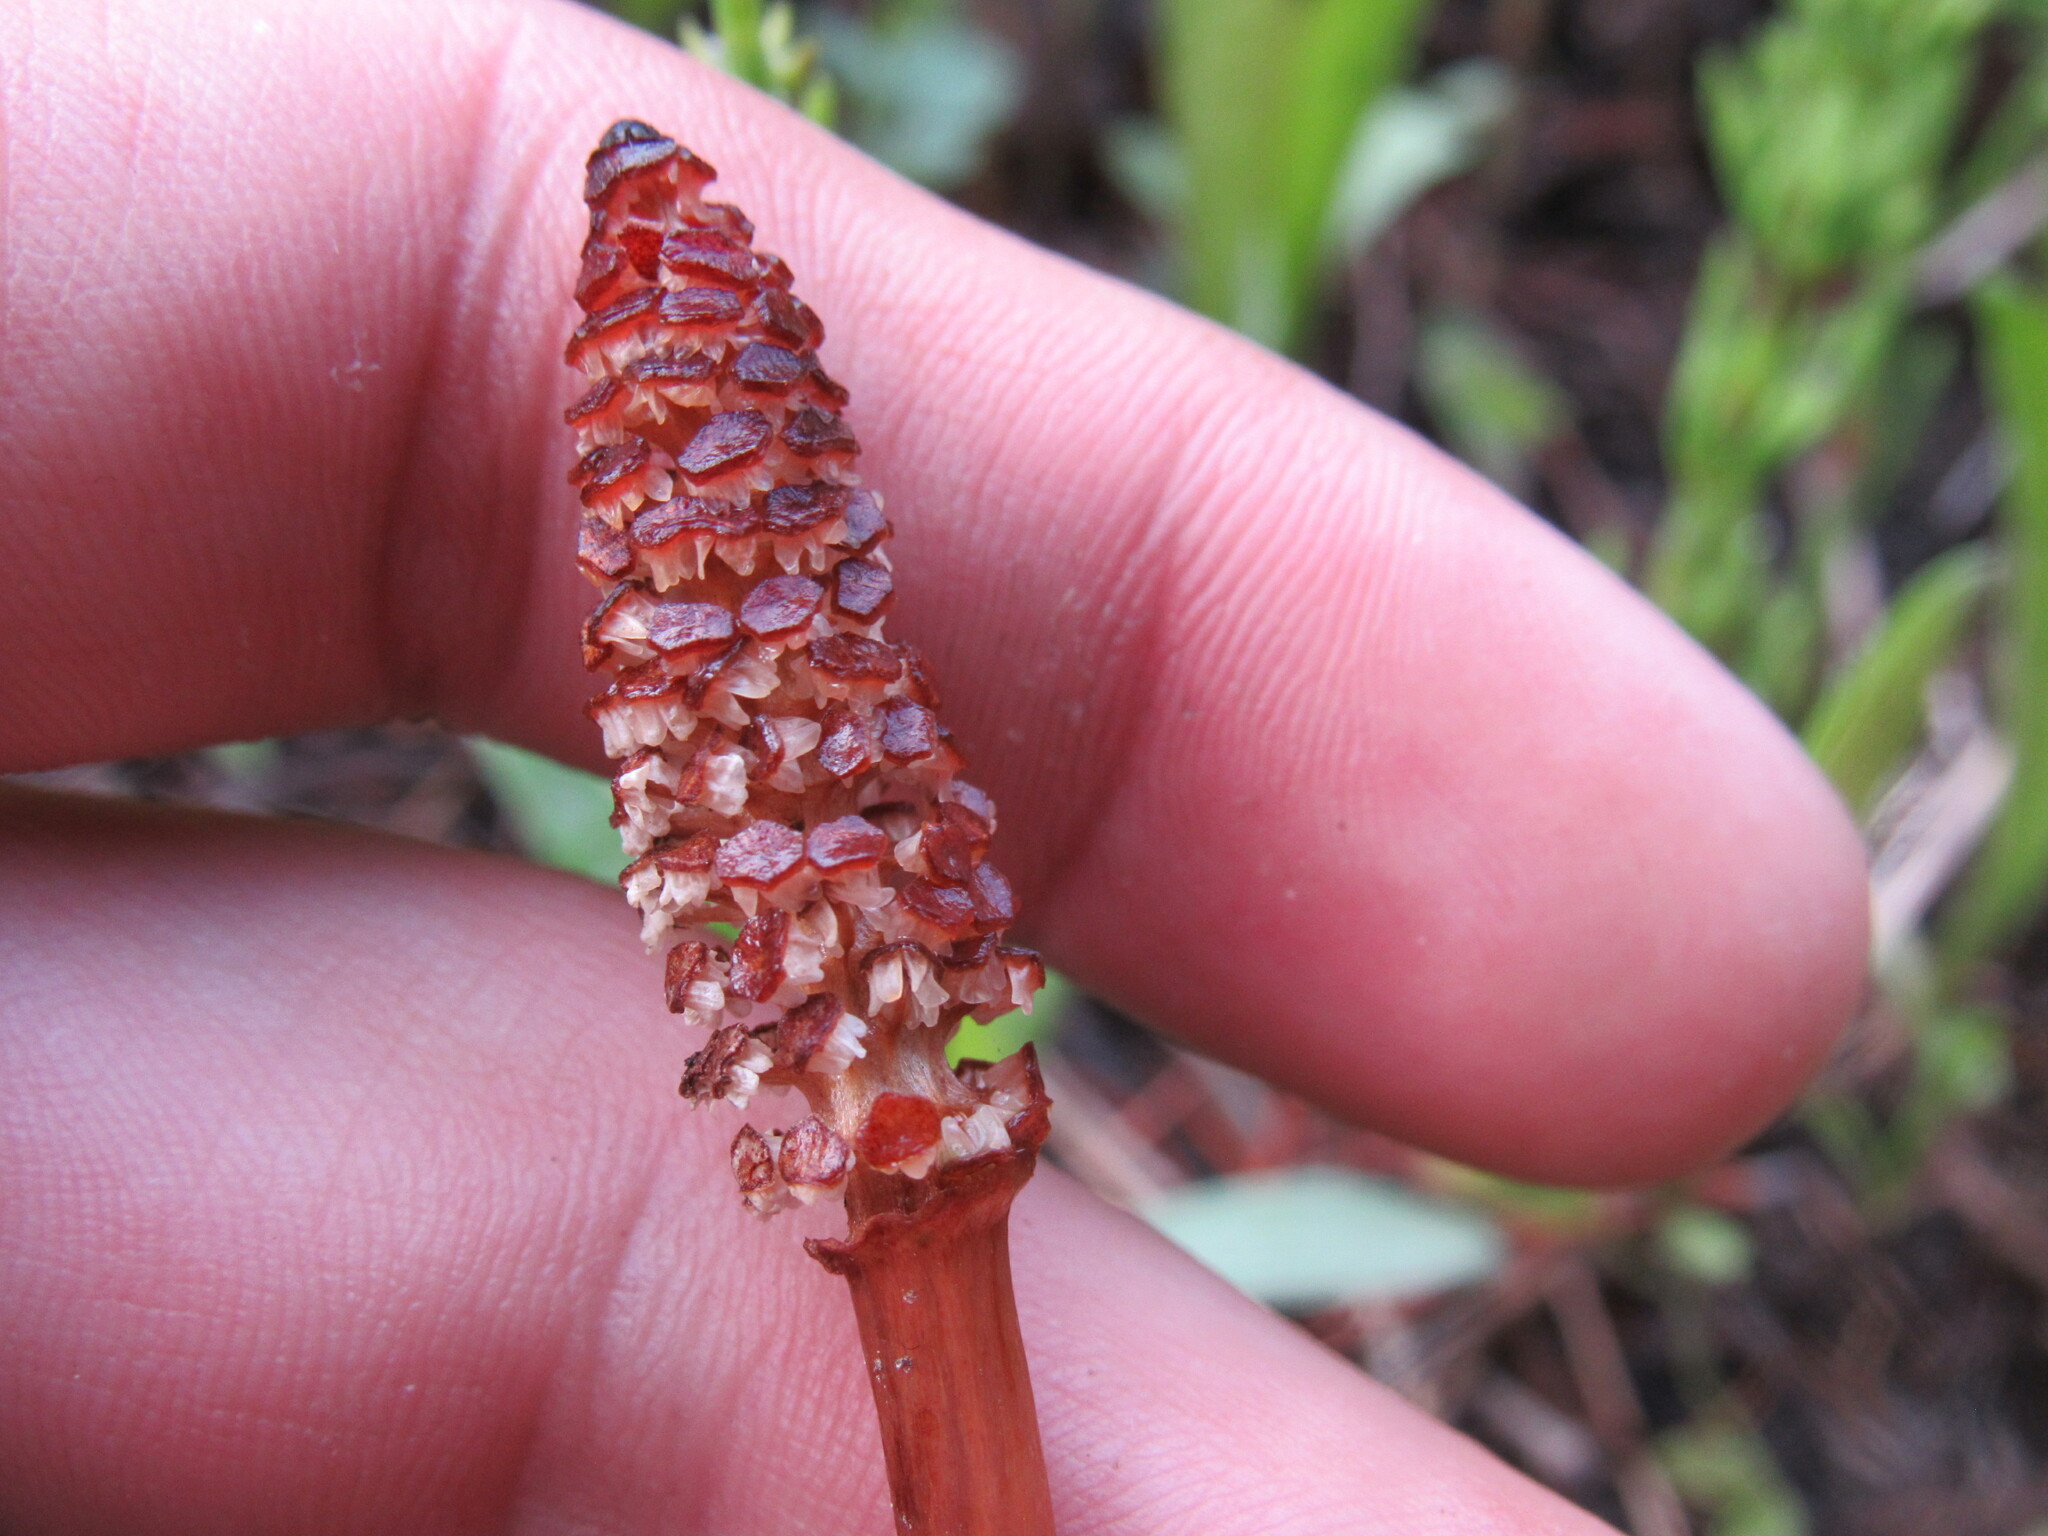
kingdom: Plantae
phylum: Tracheophyta
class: Polypodiopsida
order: Equisetales
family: Equisetaceae
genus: Equisetum
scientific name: Equisetum arvense
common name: Field horsetail
